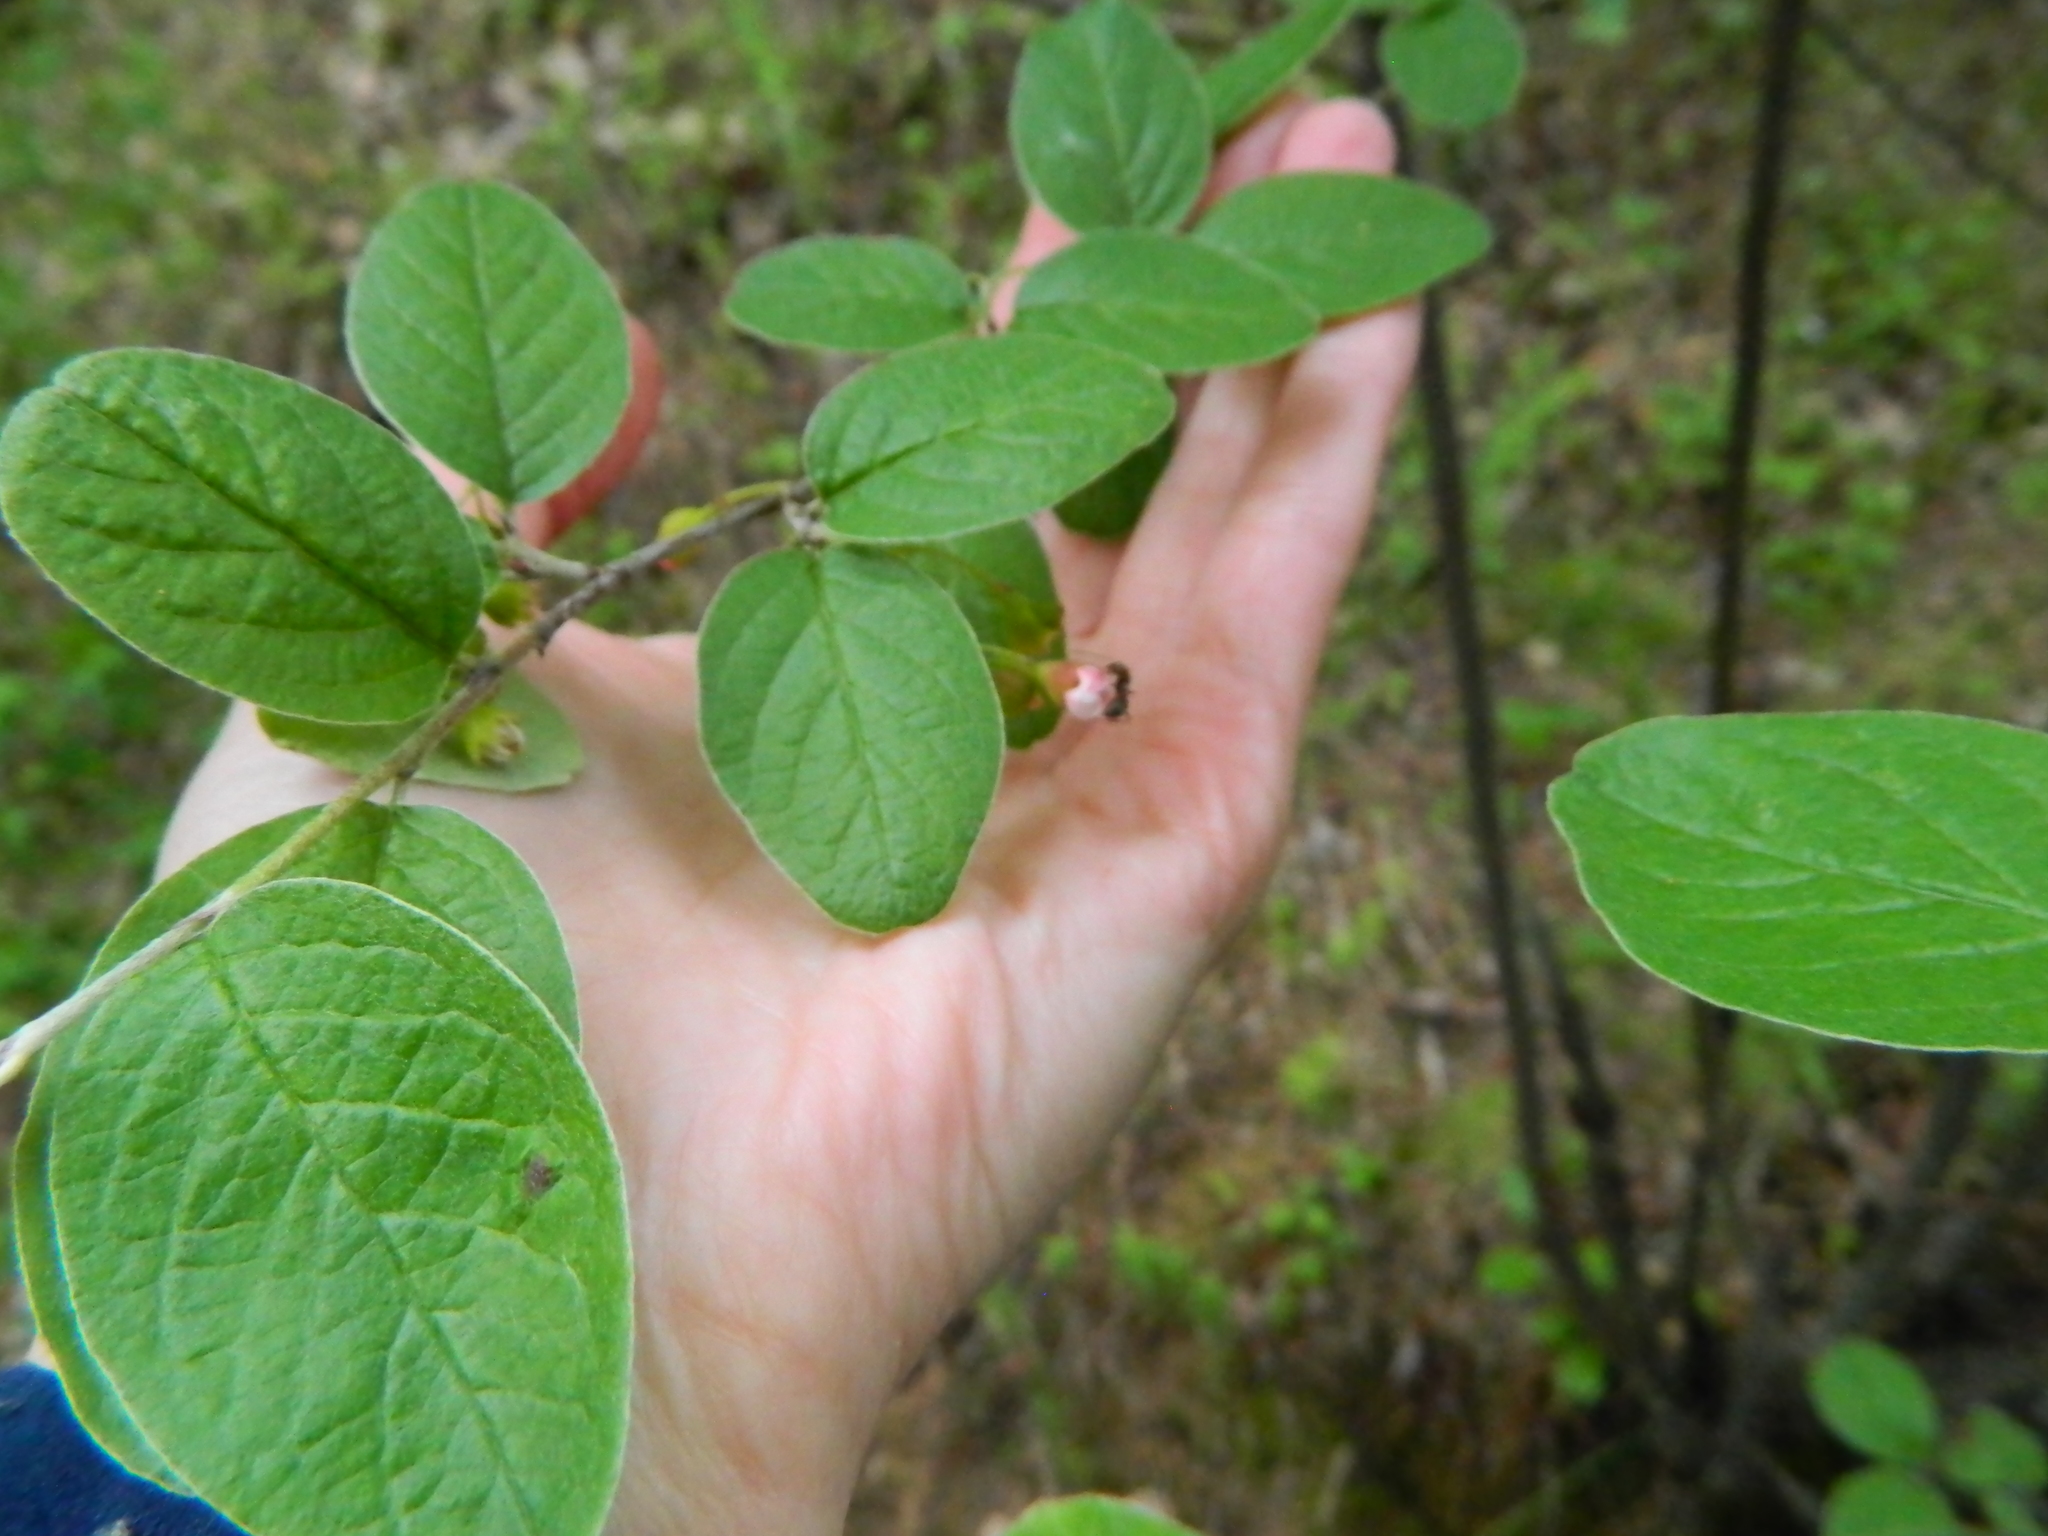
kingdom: Plantae
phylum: Tracheophyta
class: Magnoliopsida
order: Rosales
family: Rosaceae
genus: Cotoneaster
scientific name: Cotoneaster melanocarpus
